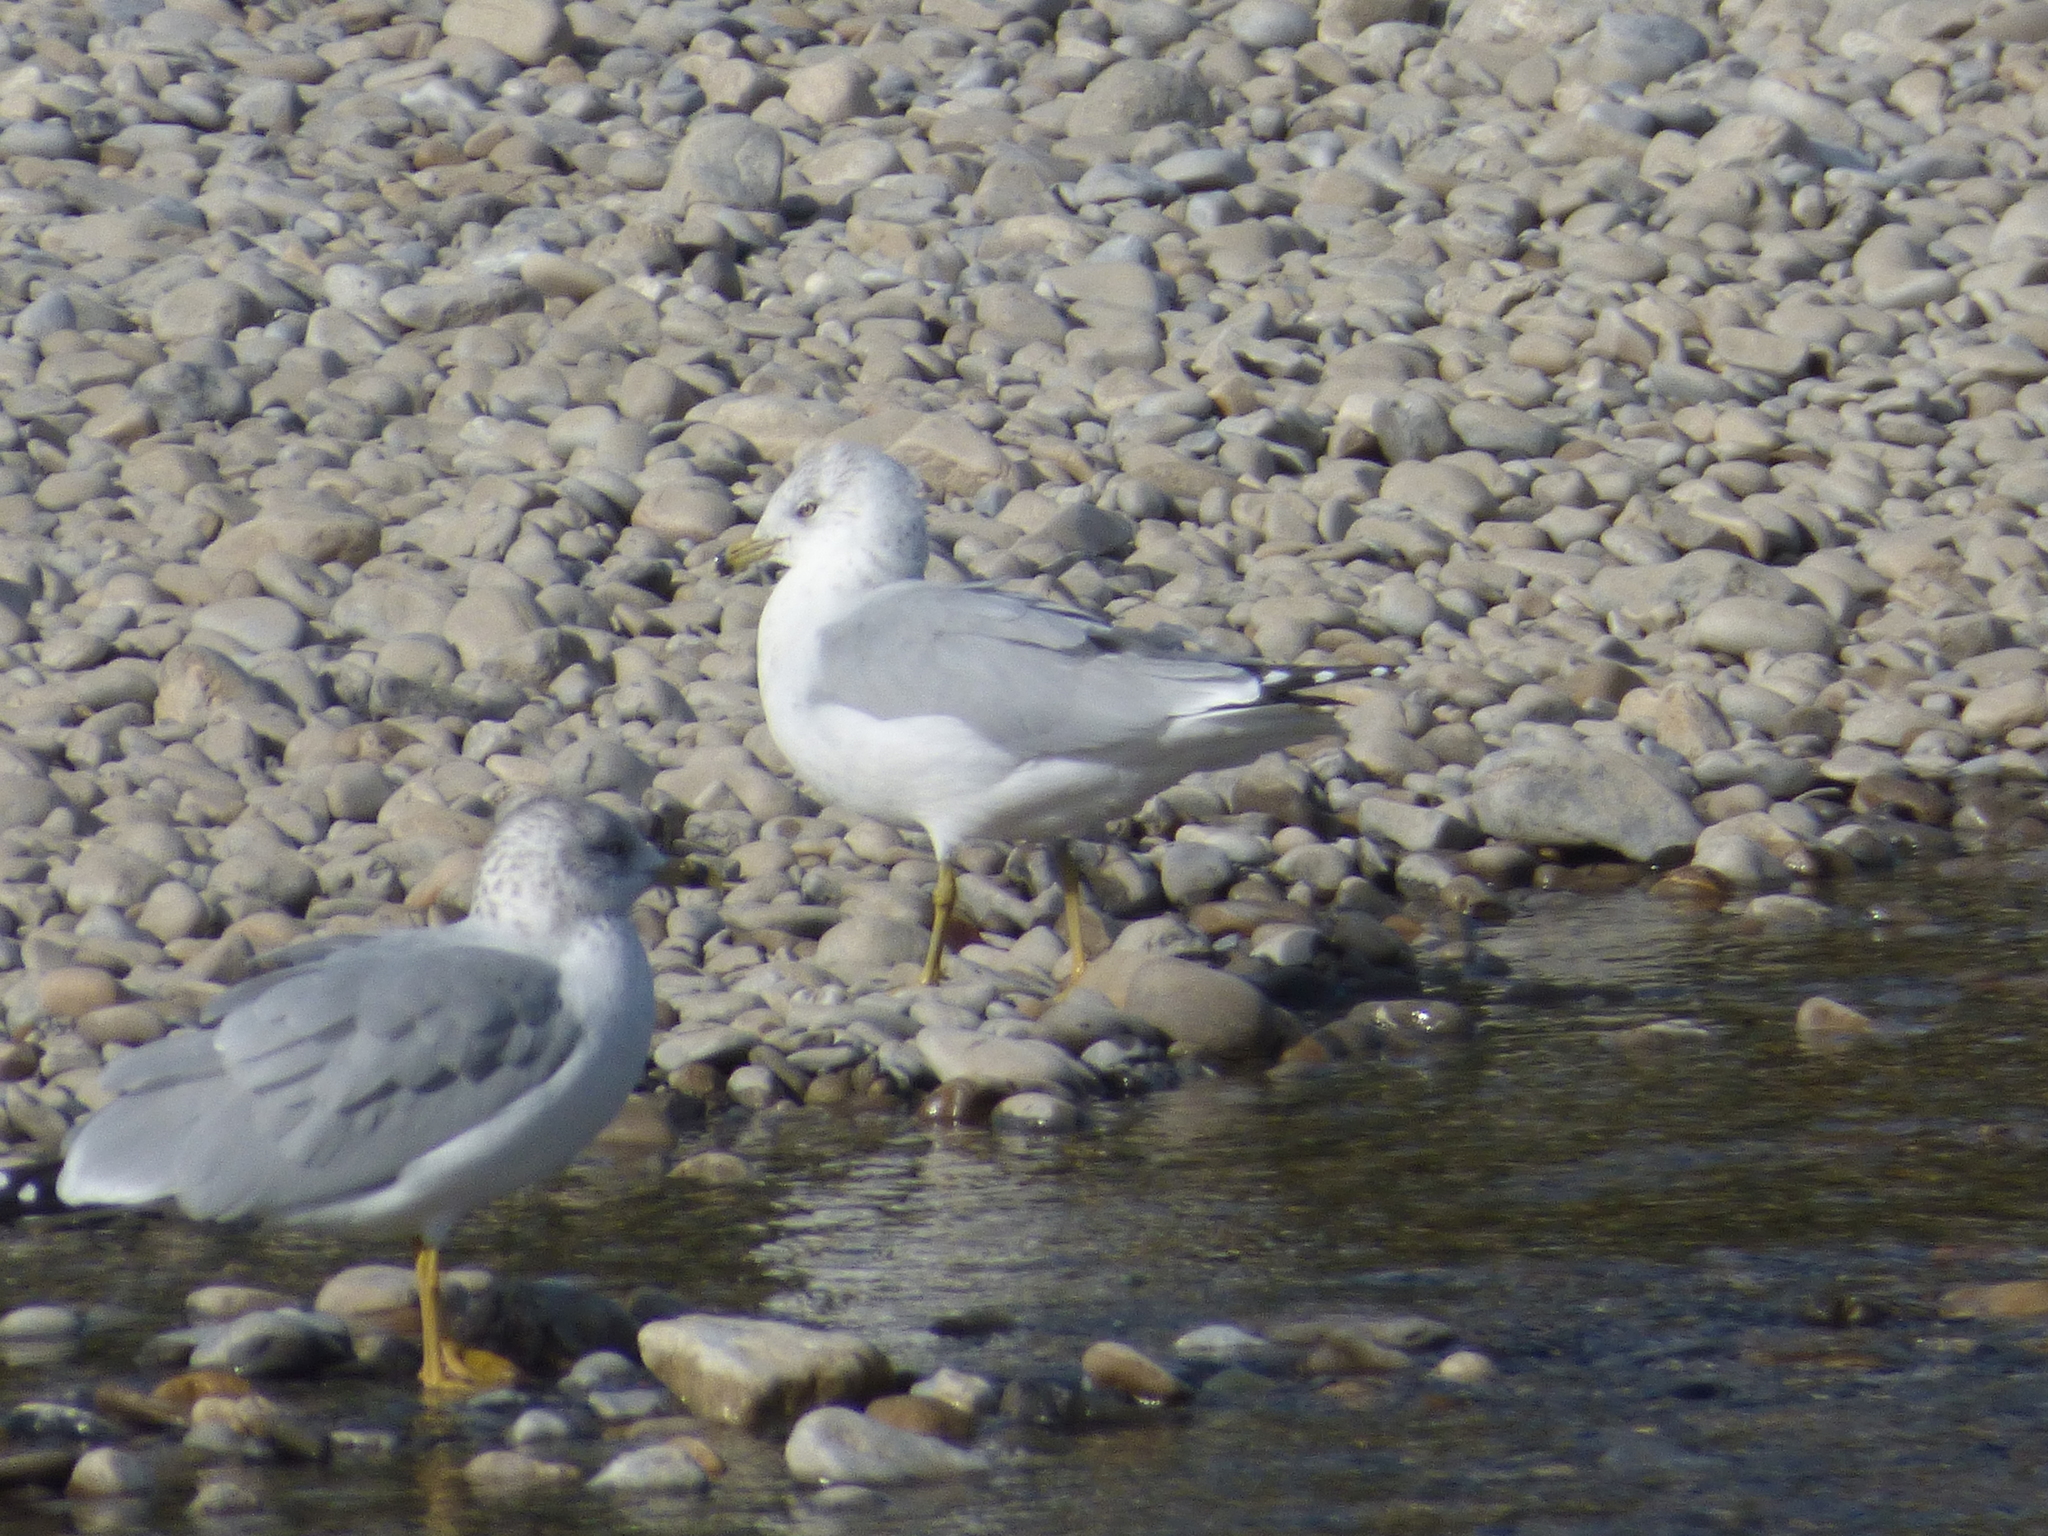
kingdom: Animalia
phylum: Chordata
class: Aves
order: Charadriiformes
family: Laridae
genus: Larus
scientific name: Larus delawarensis
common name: Ring-billed gull
